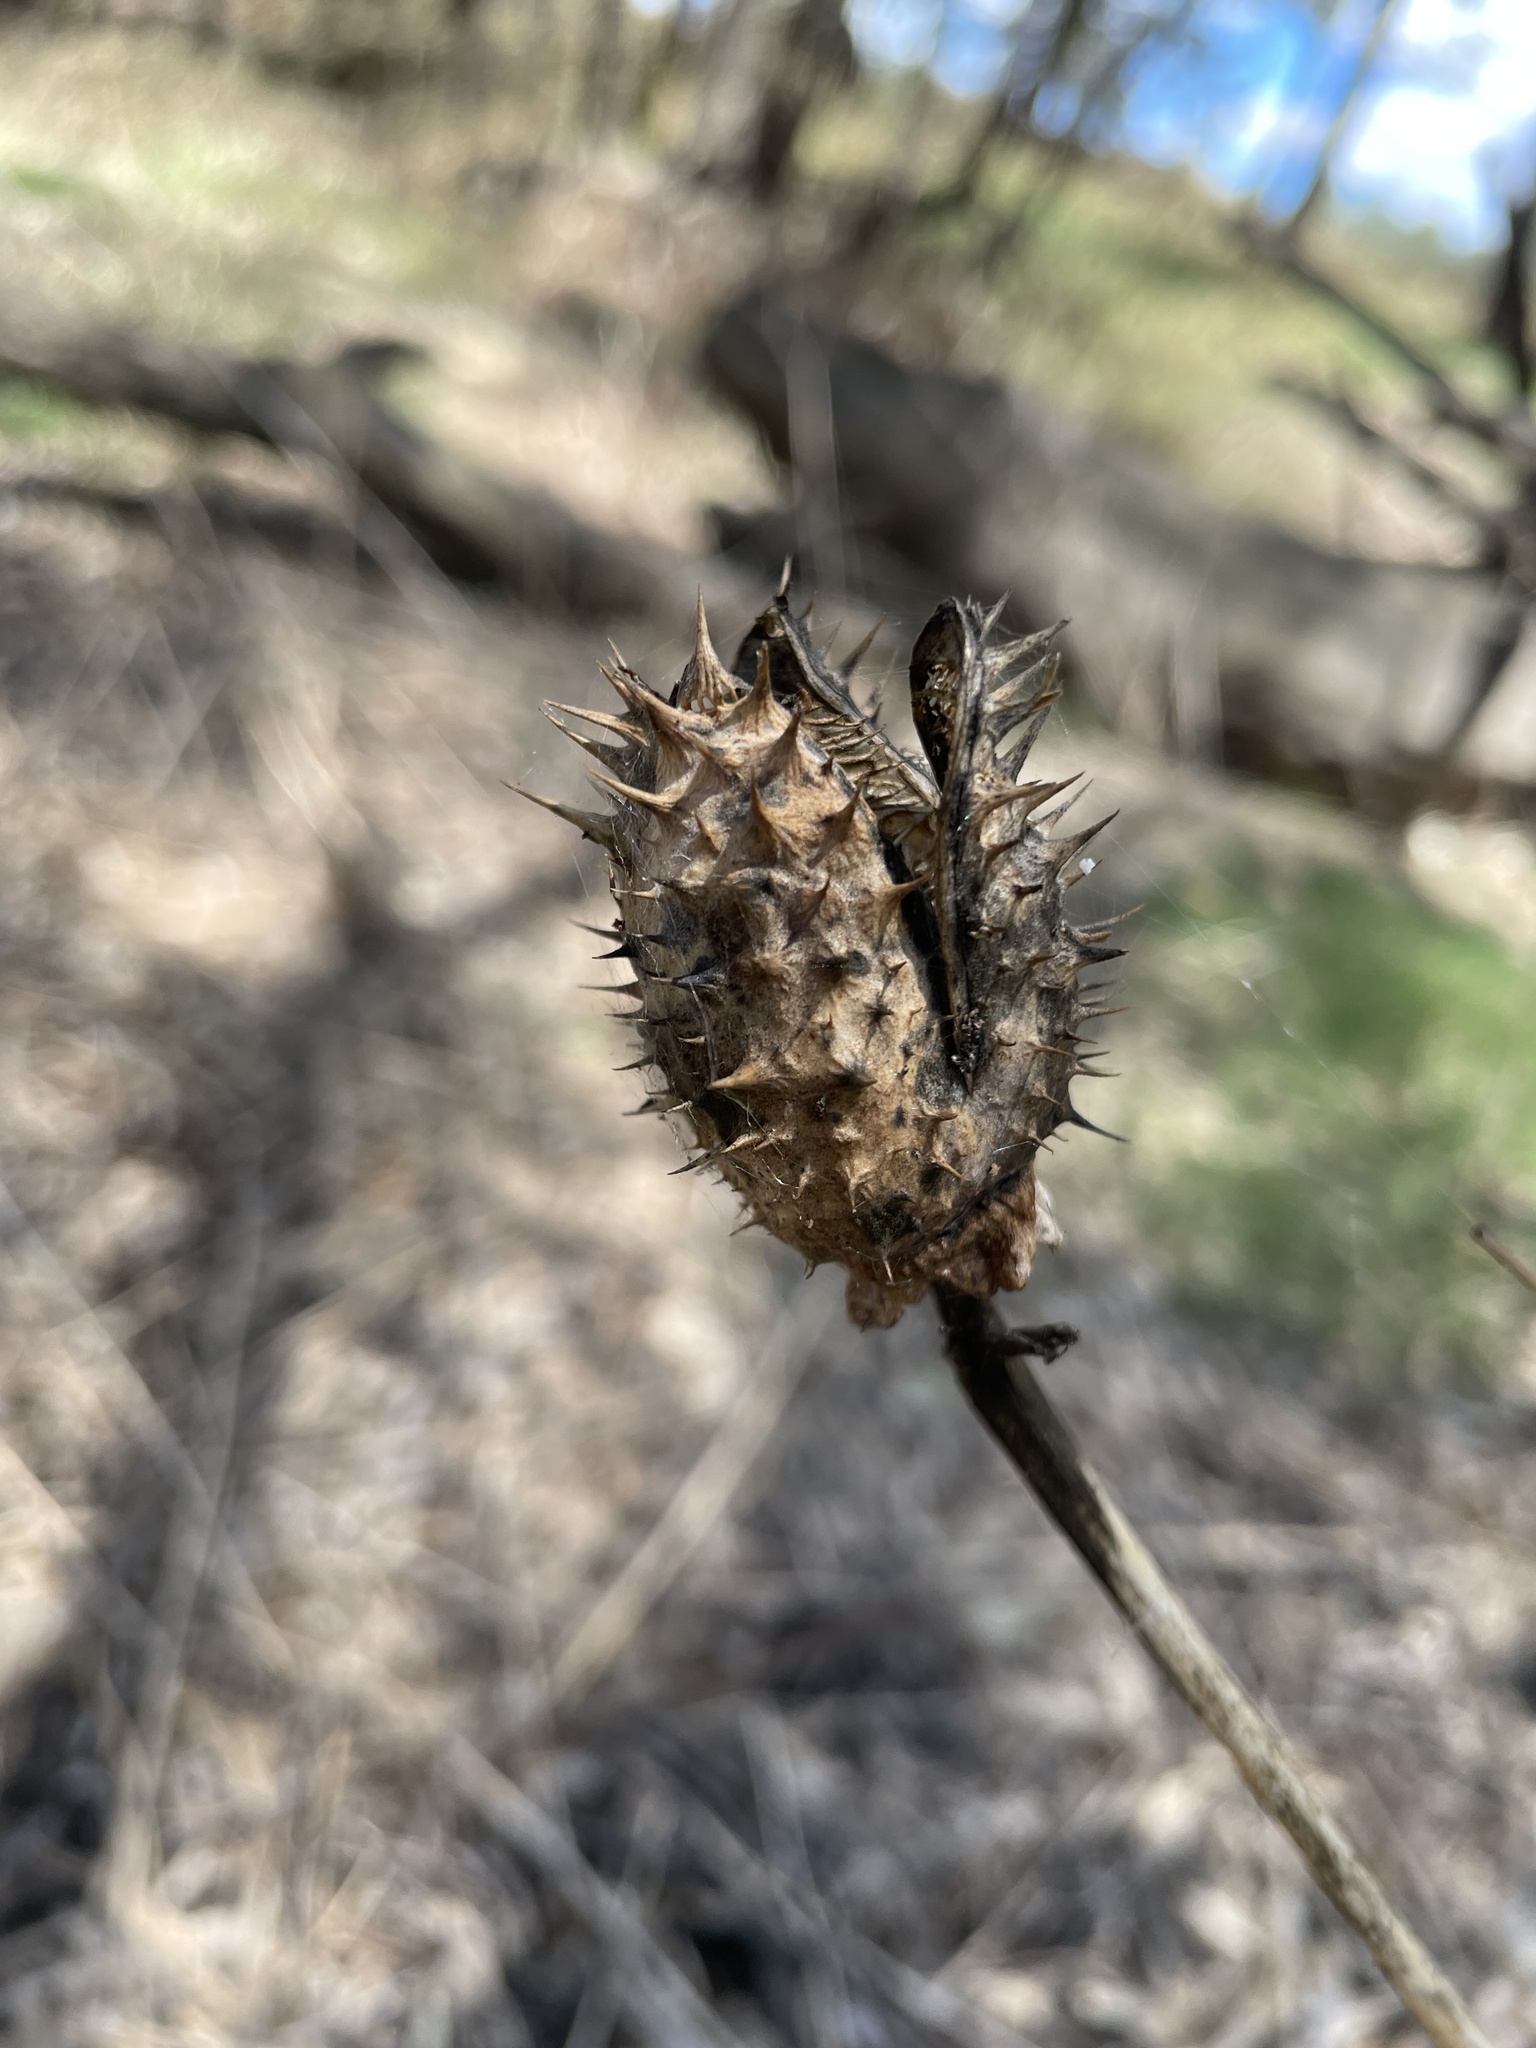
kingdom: Plantae
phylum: Tracheophyta
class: Magnoliopsida
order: Solanales
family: Solanaceae
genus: Datura
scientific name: Datura stramonium
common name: Thorn-apple
